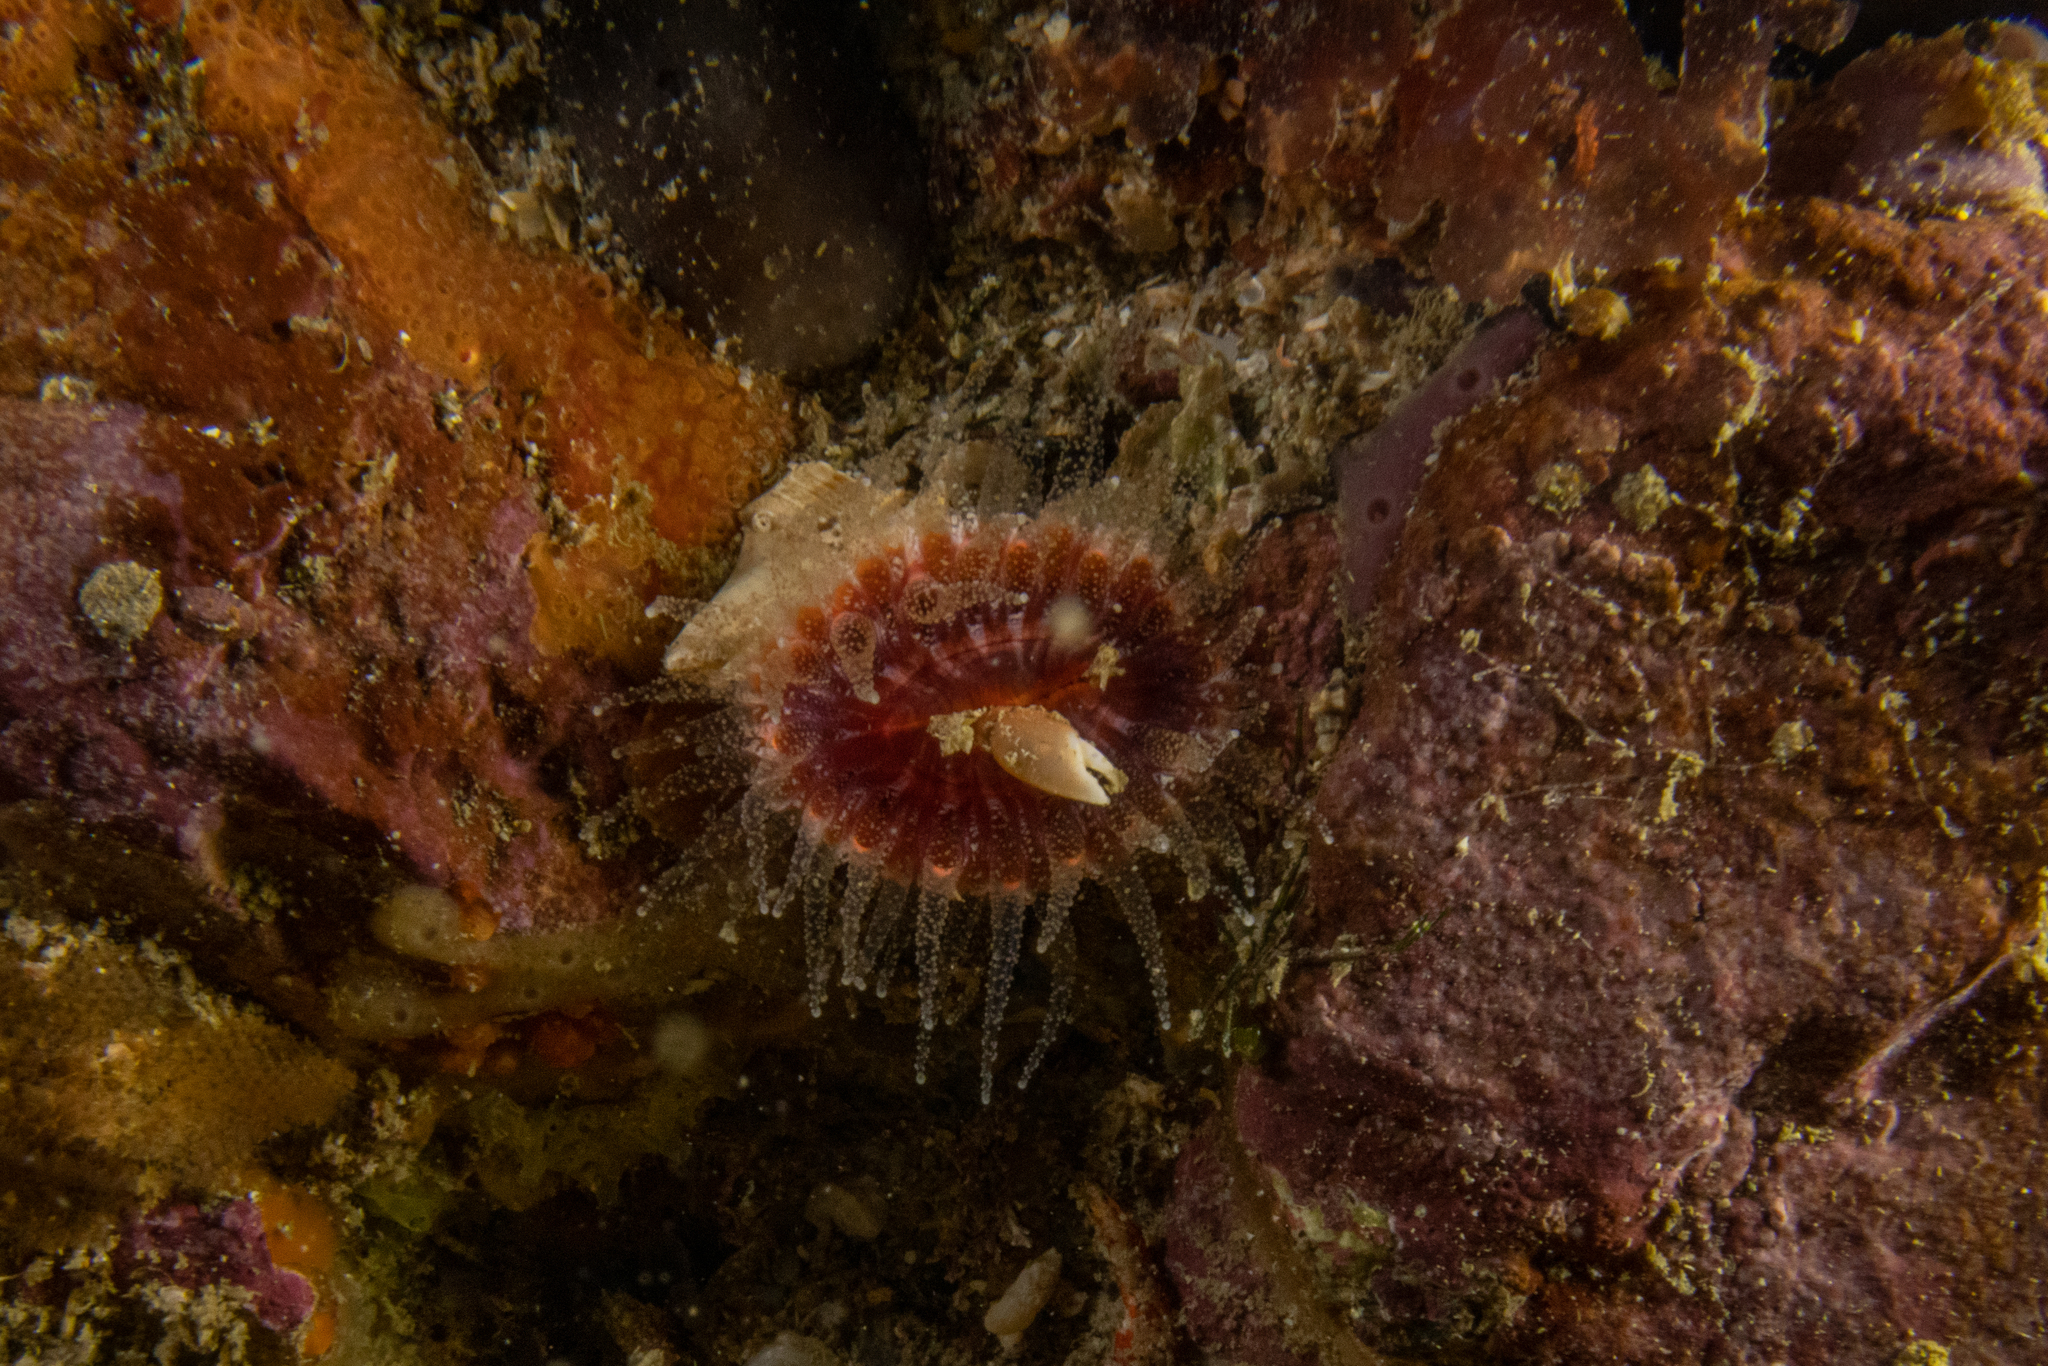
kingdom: Animalia
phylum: Cnidaria
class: Anthozoa
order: Scleractinia
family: Flabellidae
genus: Monomyces
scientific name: Monomyces rubrum
